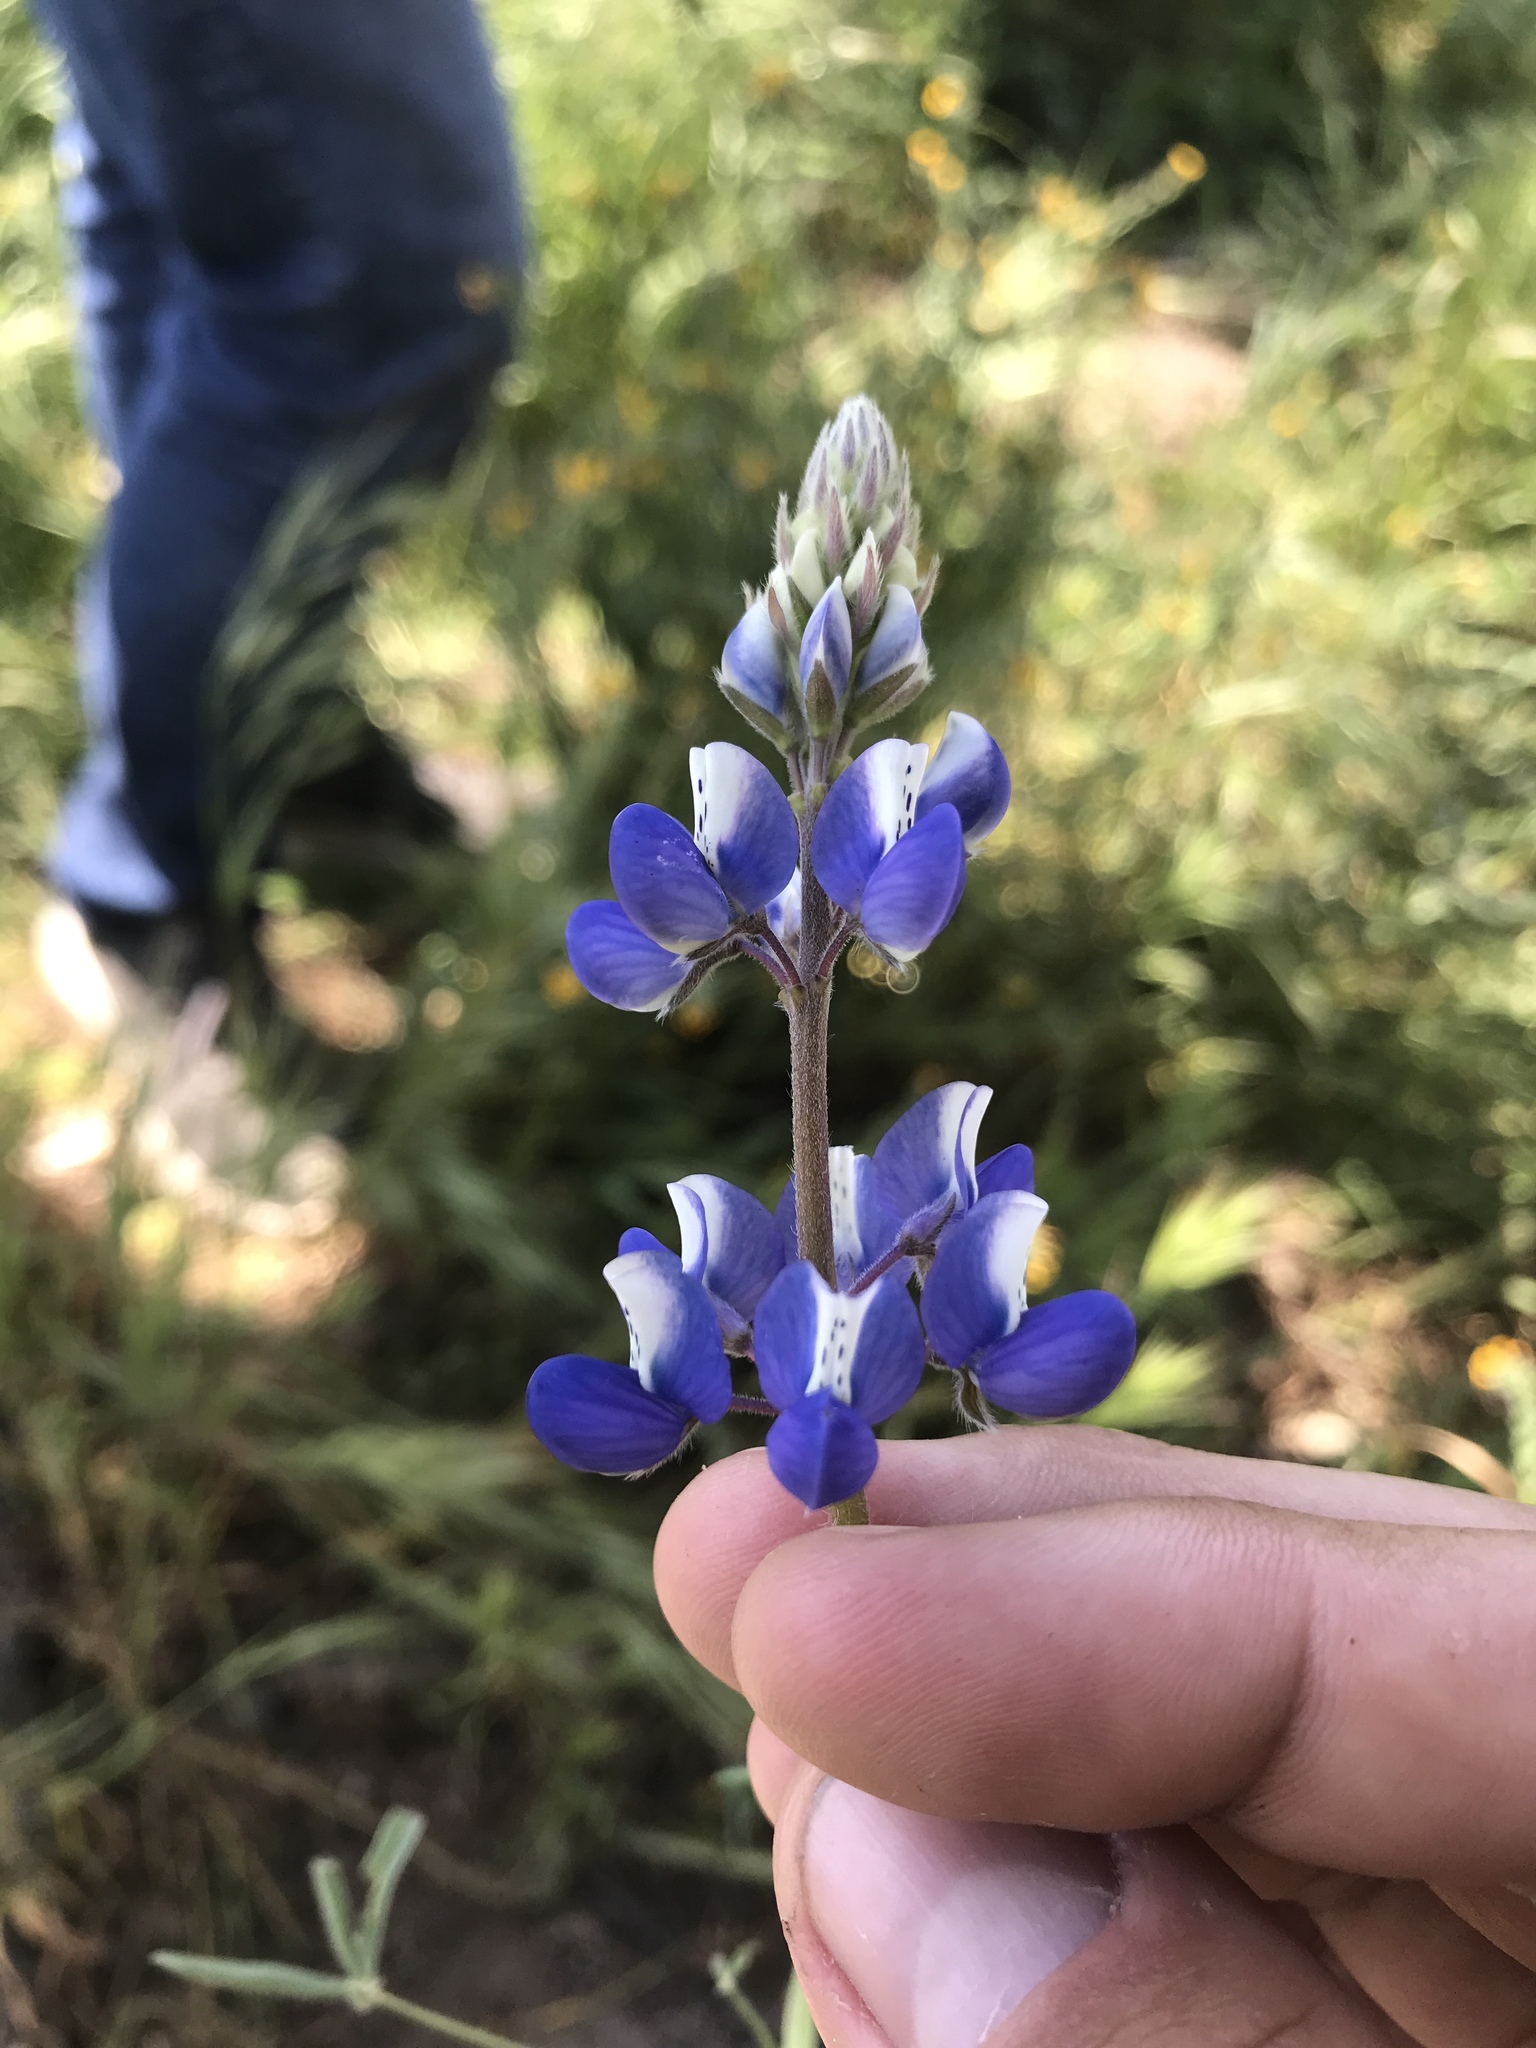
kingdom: Plantae
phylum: Tracheophyta
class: Magnoliopsida
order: Fabales
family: Fabaceae
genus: Lupinus
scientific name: Lupinus nanus
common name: Orean blue lupin
